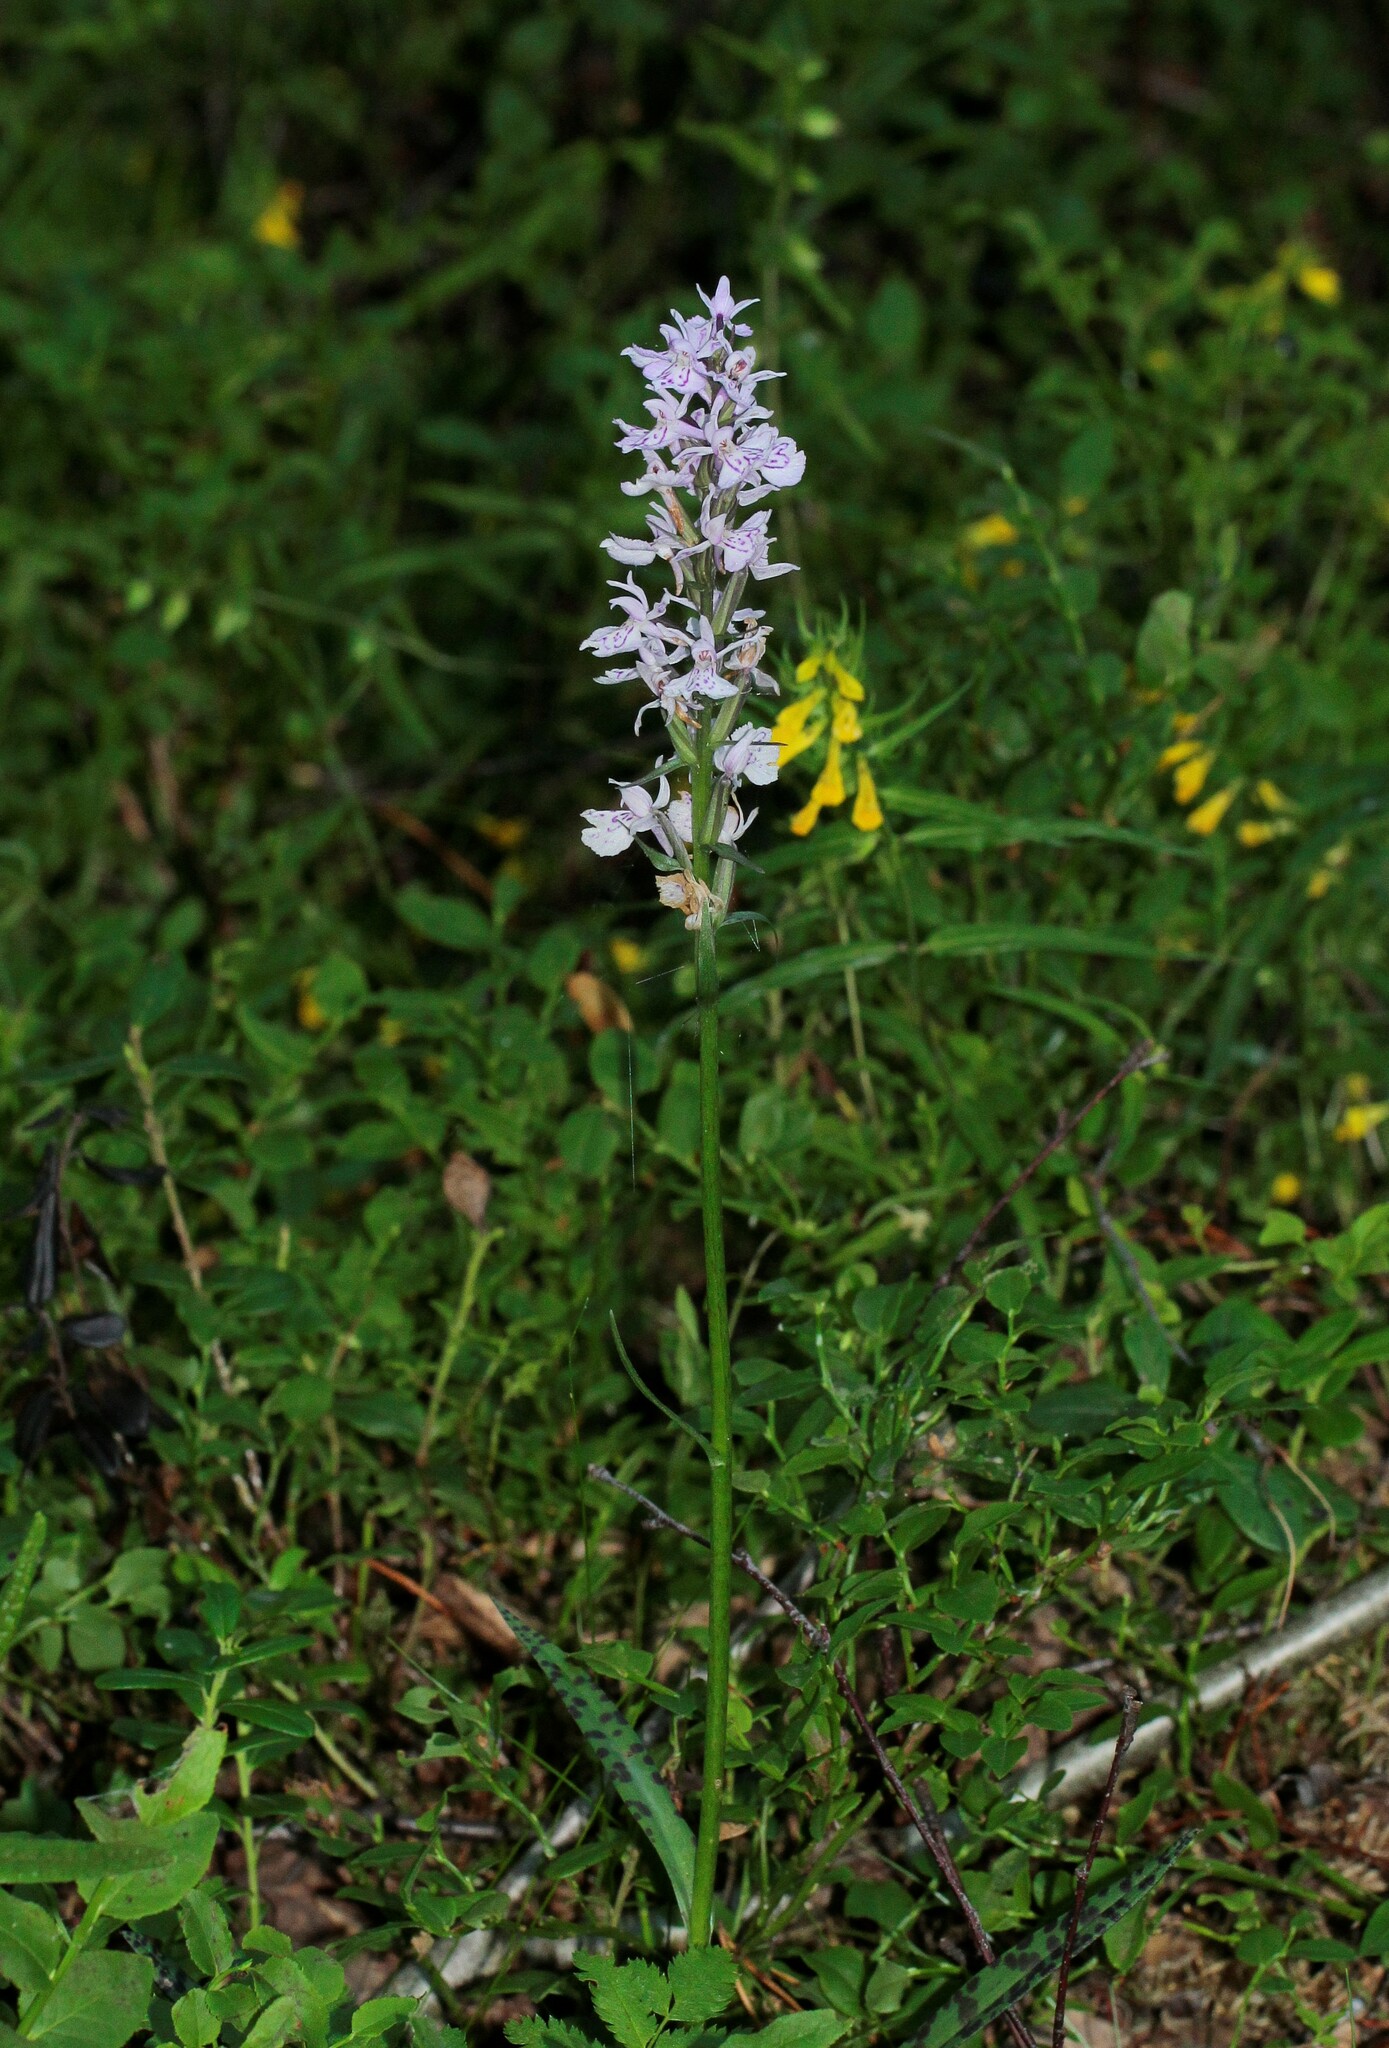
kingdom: Plantae
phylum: Tracheophyta
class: Liliopsida
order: Asparagales
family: Orchidaceae
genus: Dactylorhiza
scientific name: Dactylorhiza maculata
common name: Heath spotted-orchid
